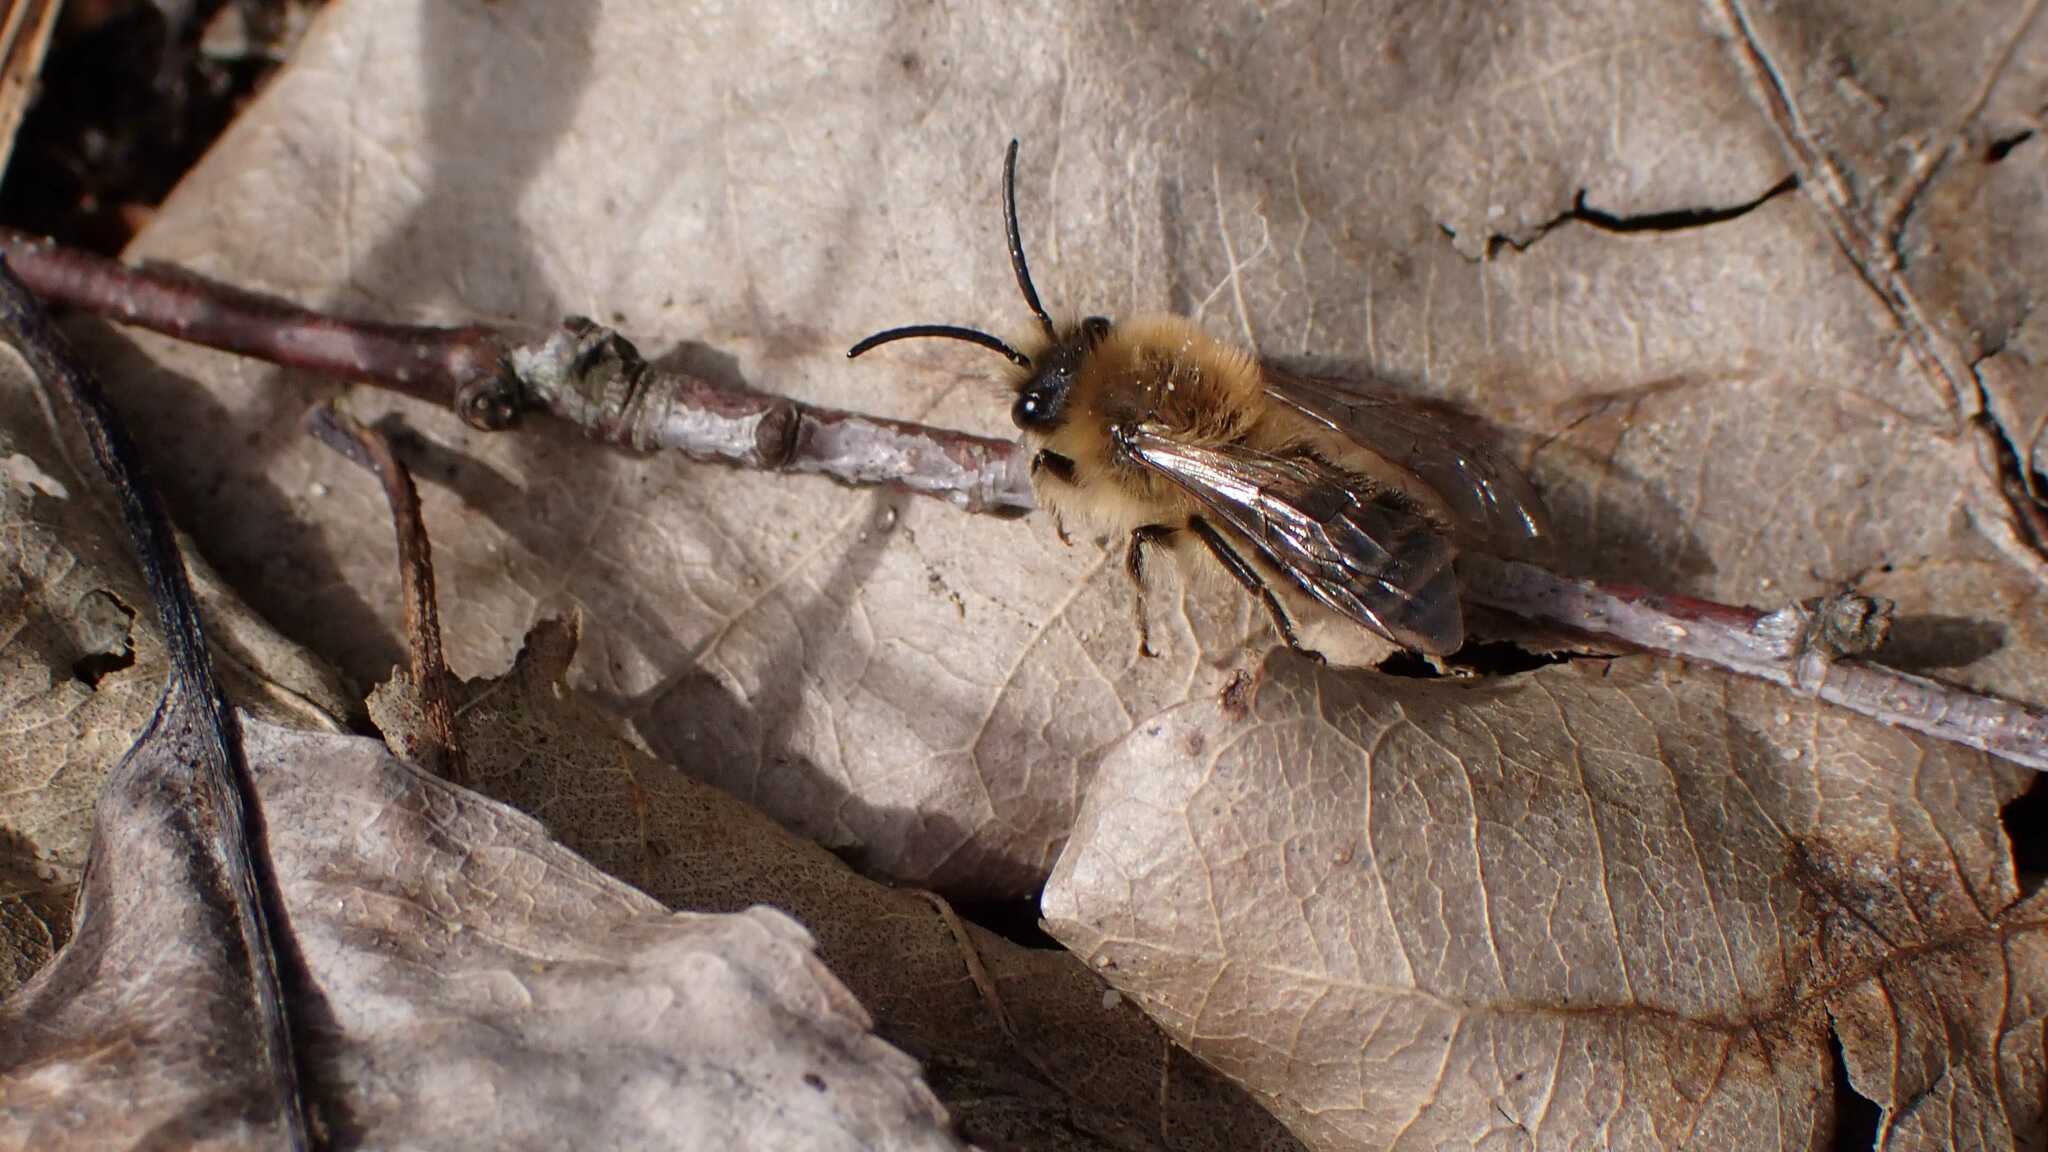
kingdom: Animalia
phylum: Arthropoda
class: Insecta
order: Hymenoptera
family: Colletidae
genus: Colletes
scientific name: Colletes cunicularius
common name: Early colletes
